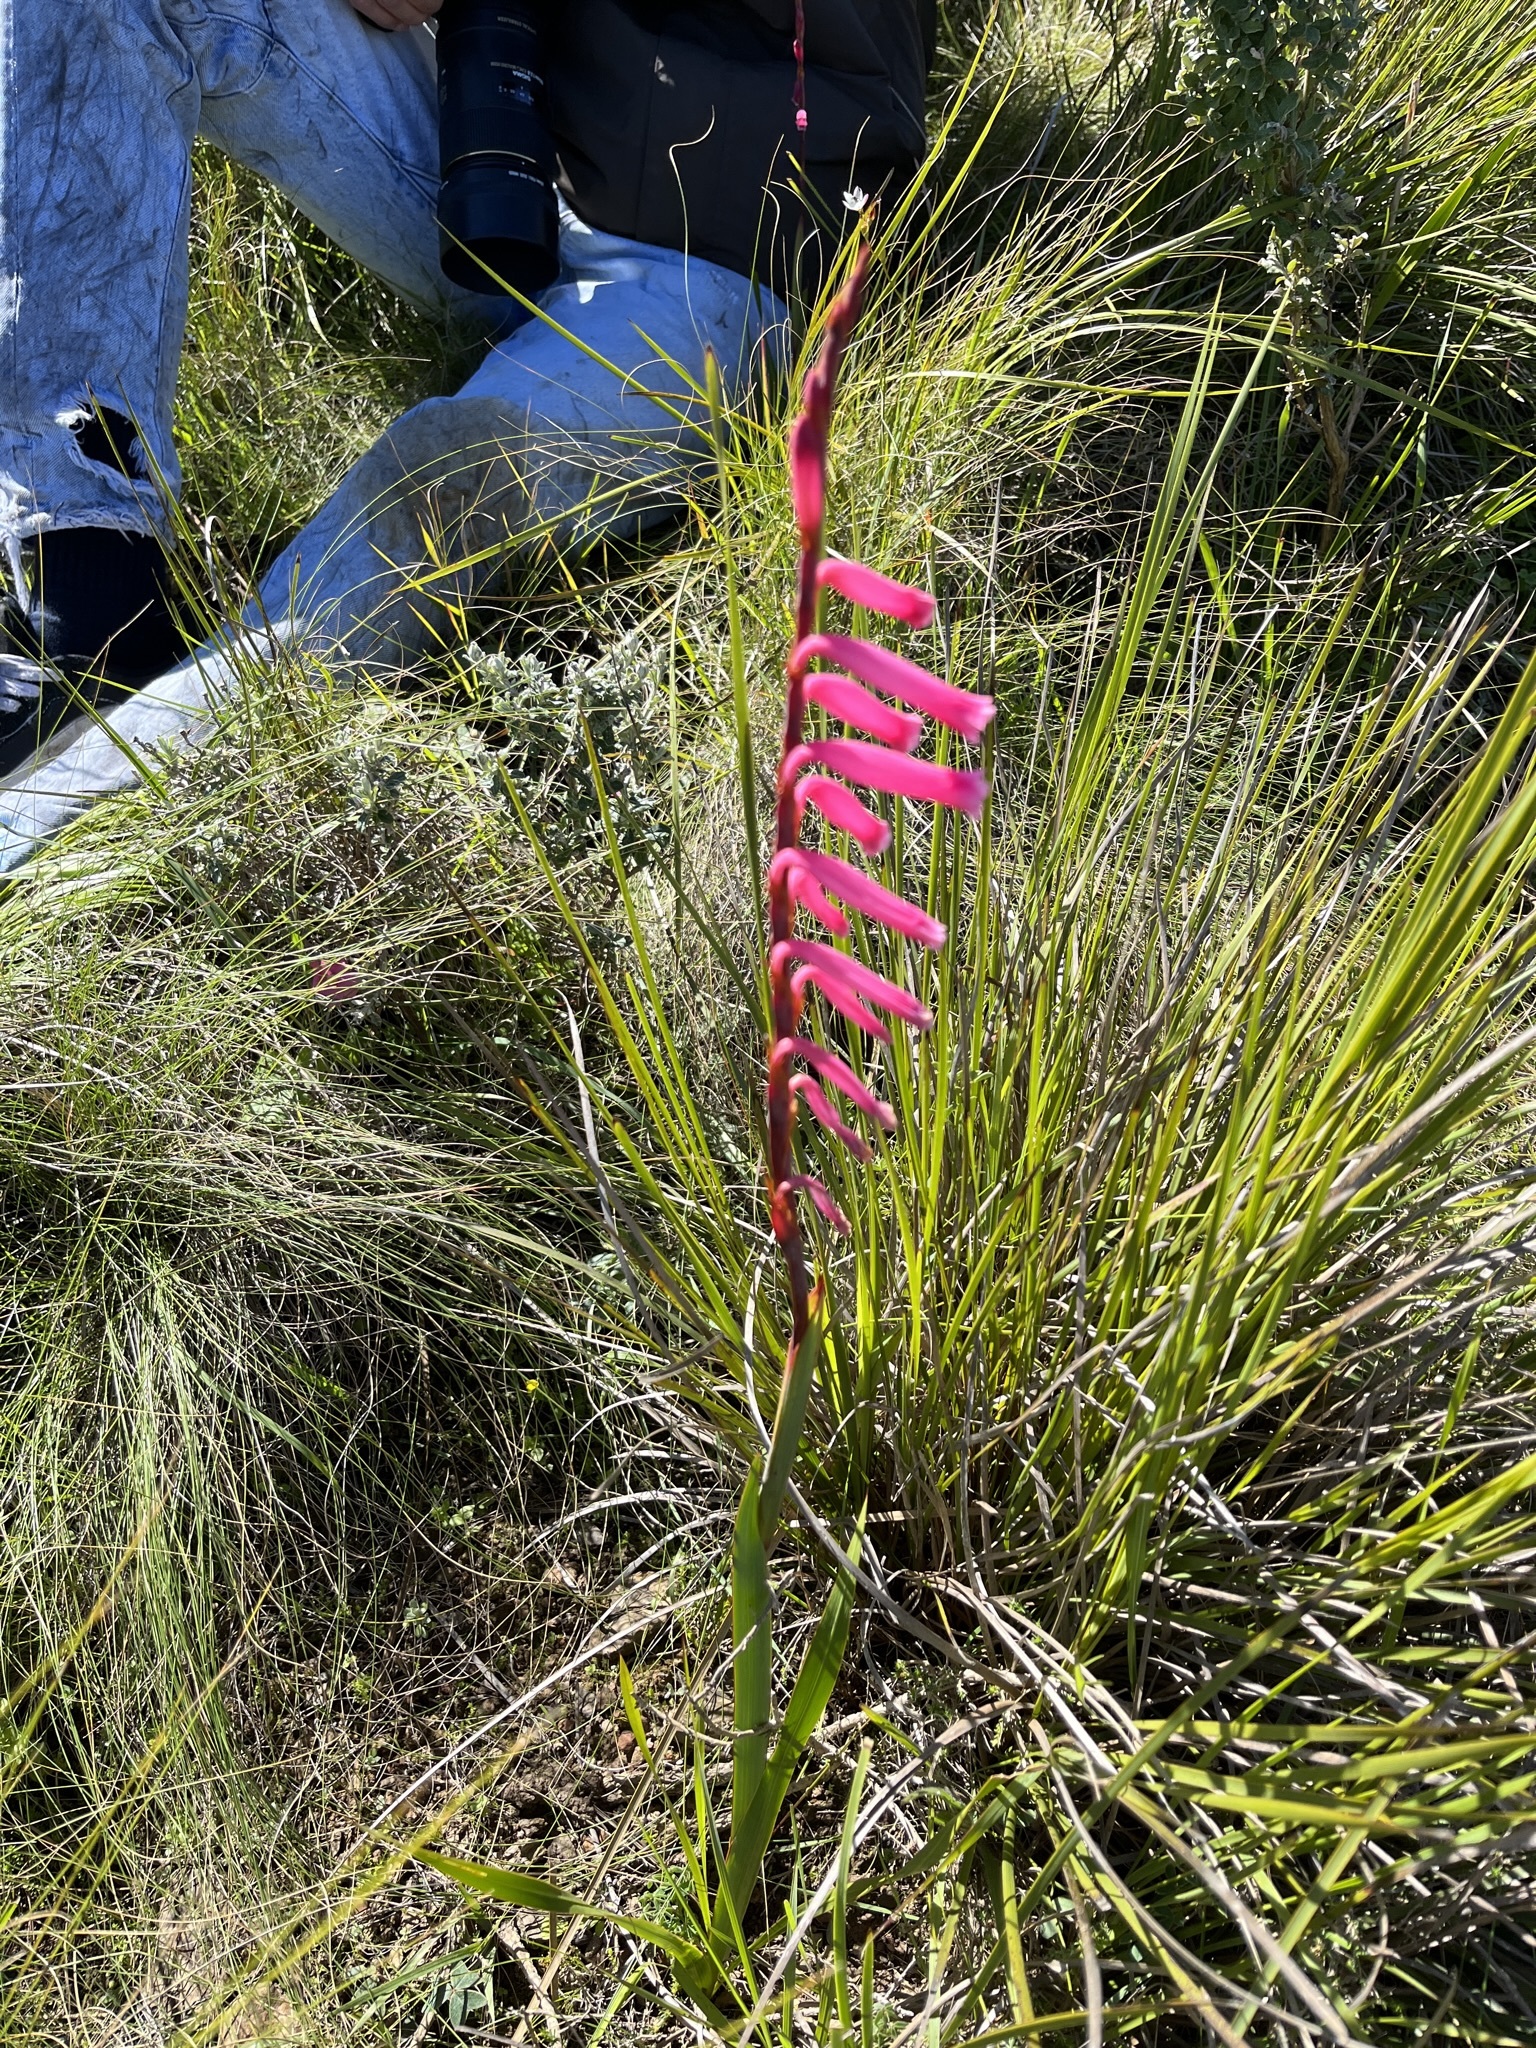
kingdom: Plantae
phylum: Tracheophyta
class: Liliopsida
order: Asparagales
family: Iridaceae
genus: Watsonia
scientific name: Watsonia aletroides
